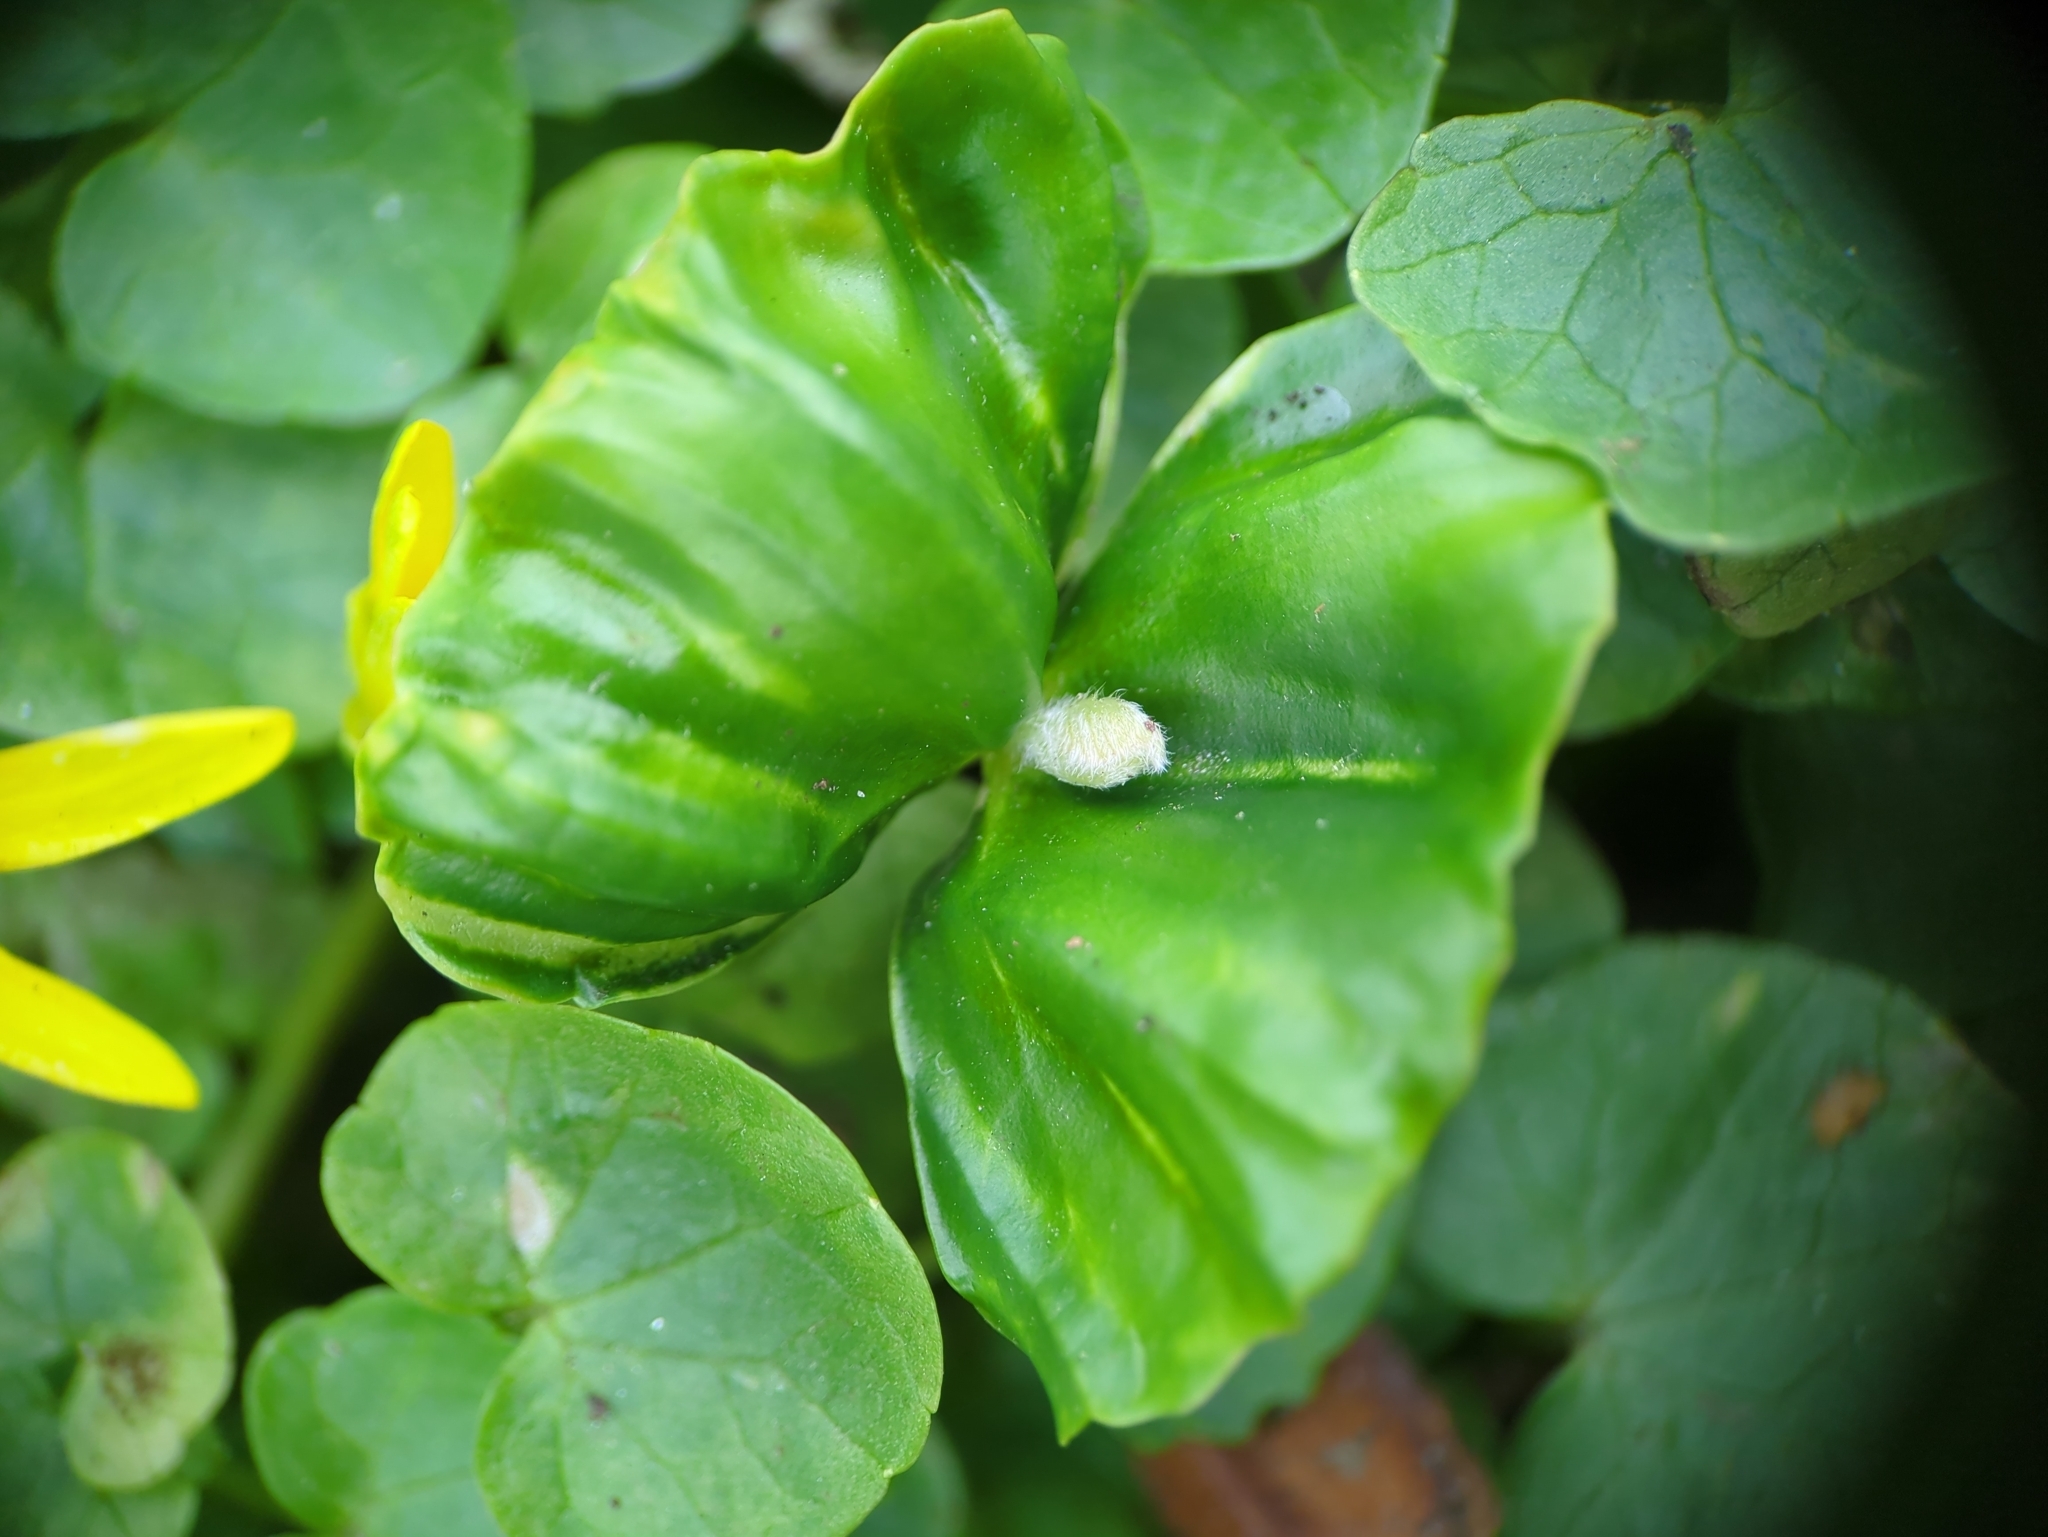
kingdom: Plantae
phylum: Tracheophyta
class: Magnoliopsida
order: Fagales
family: Fagaceae
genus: Fagus
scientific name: Fagus sylvatica
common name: Beech
